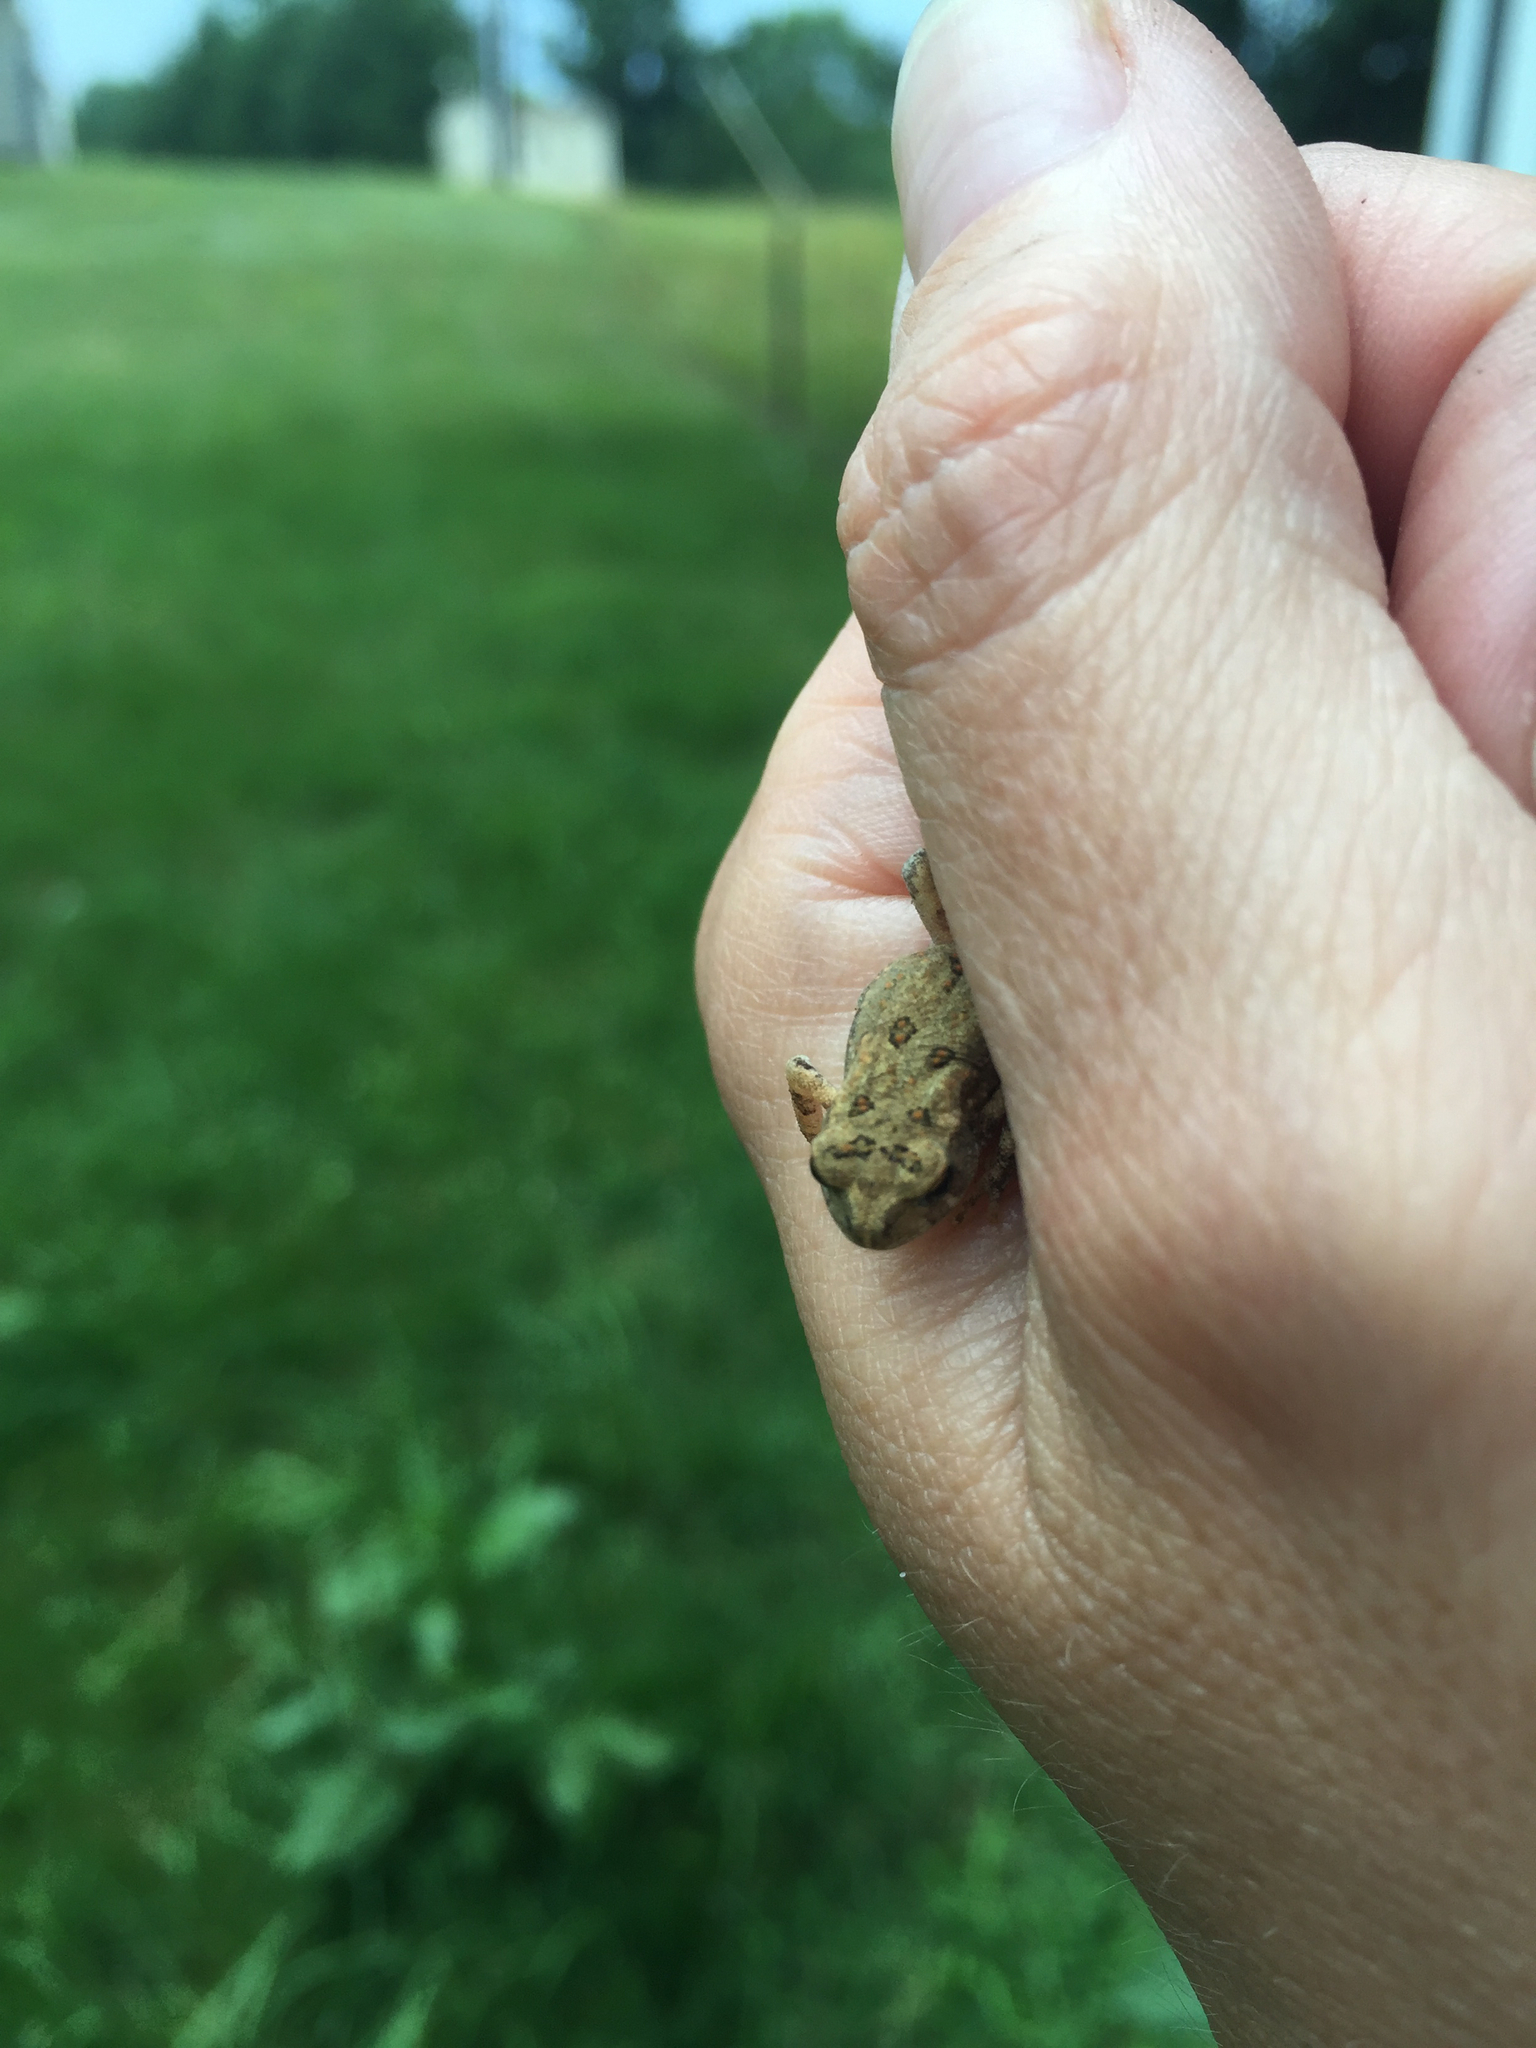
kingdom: Animalia
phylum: Chordata
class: Amphibia
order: Anura
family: Bufonidae
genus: Anaxyrus
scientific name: Anaxyrus americanus
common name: American toad
